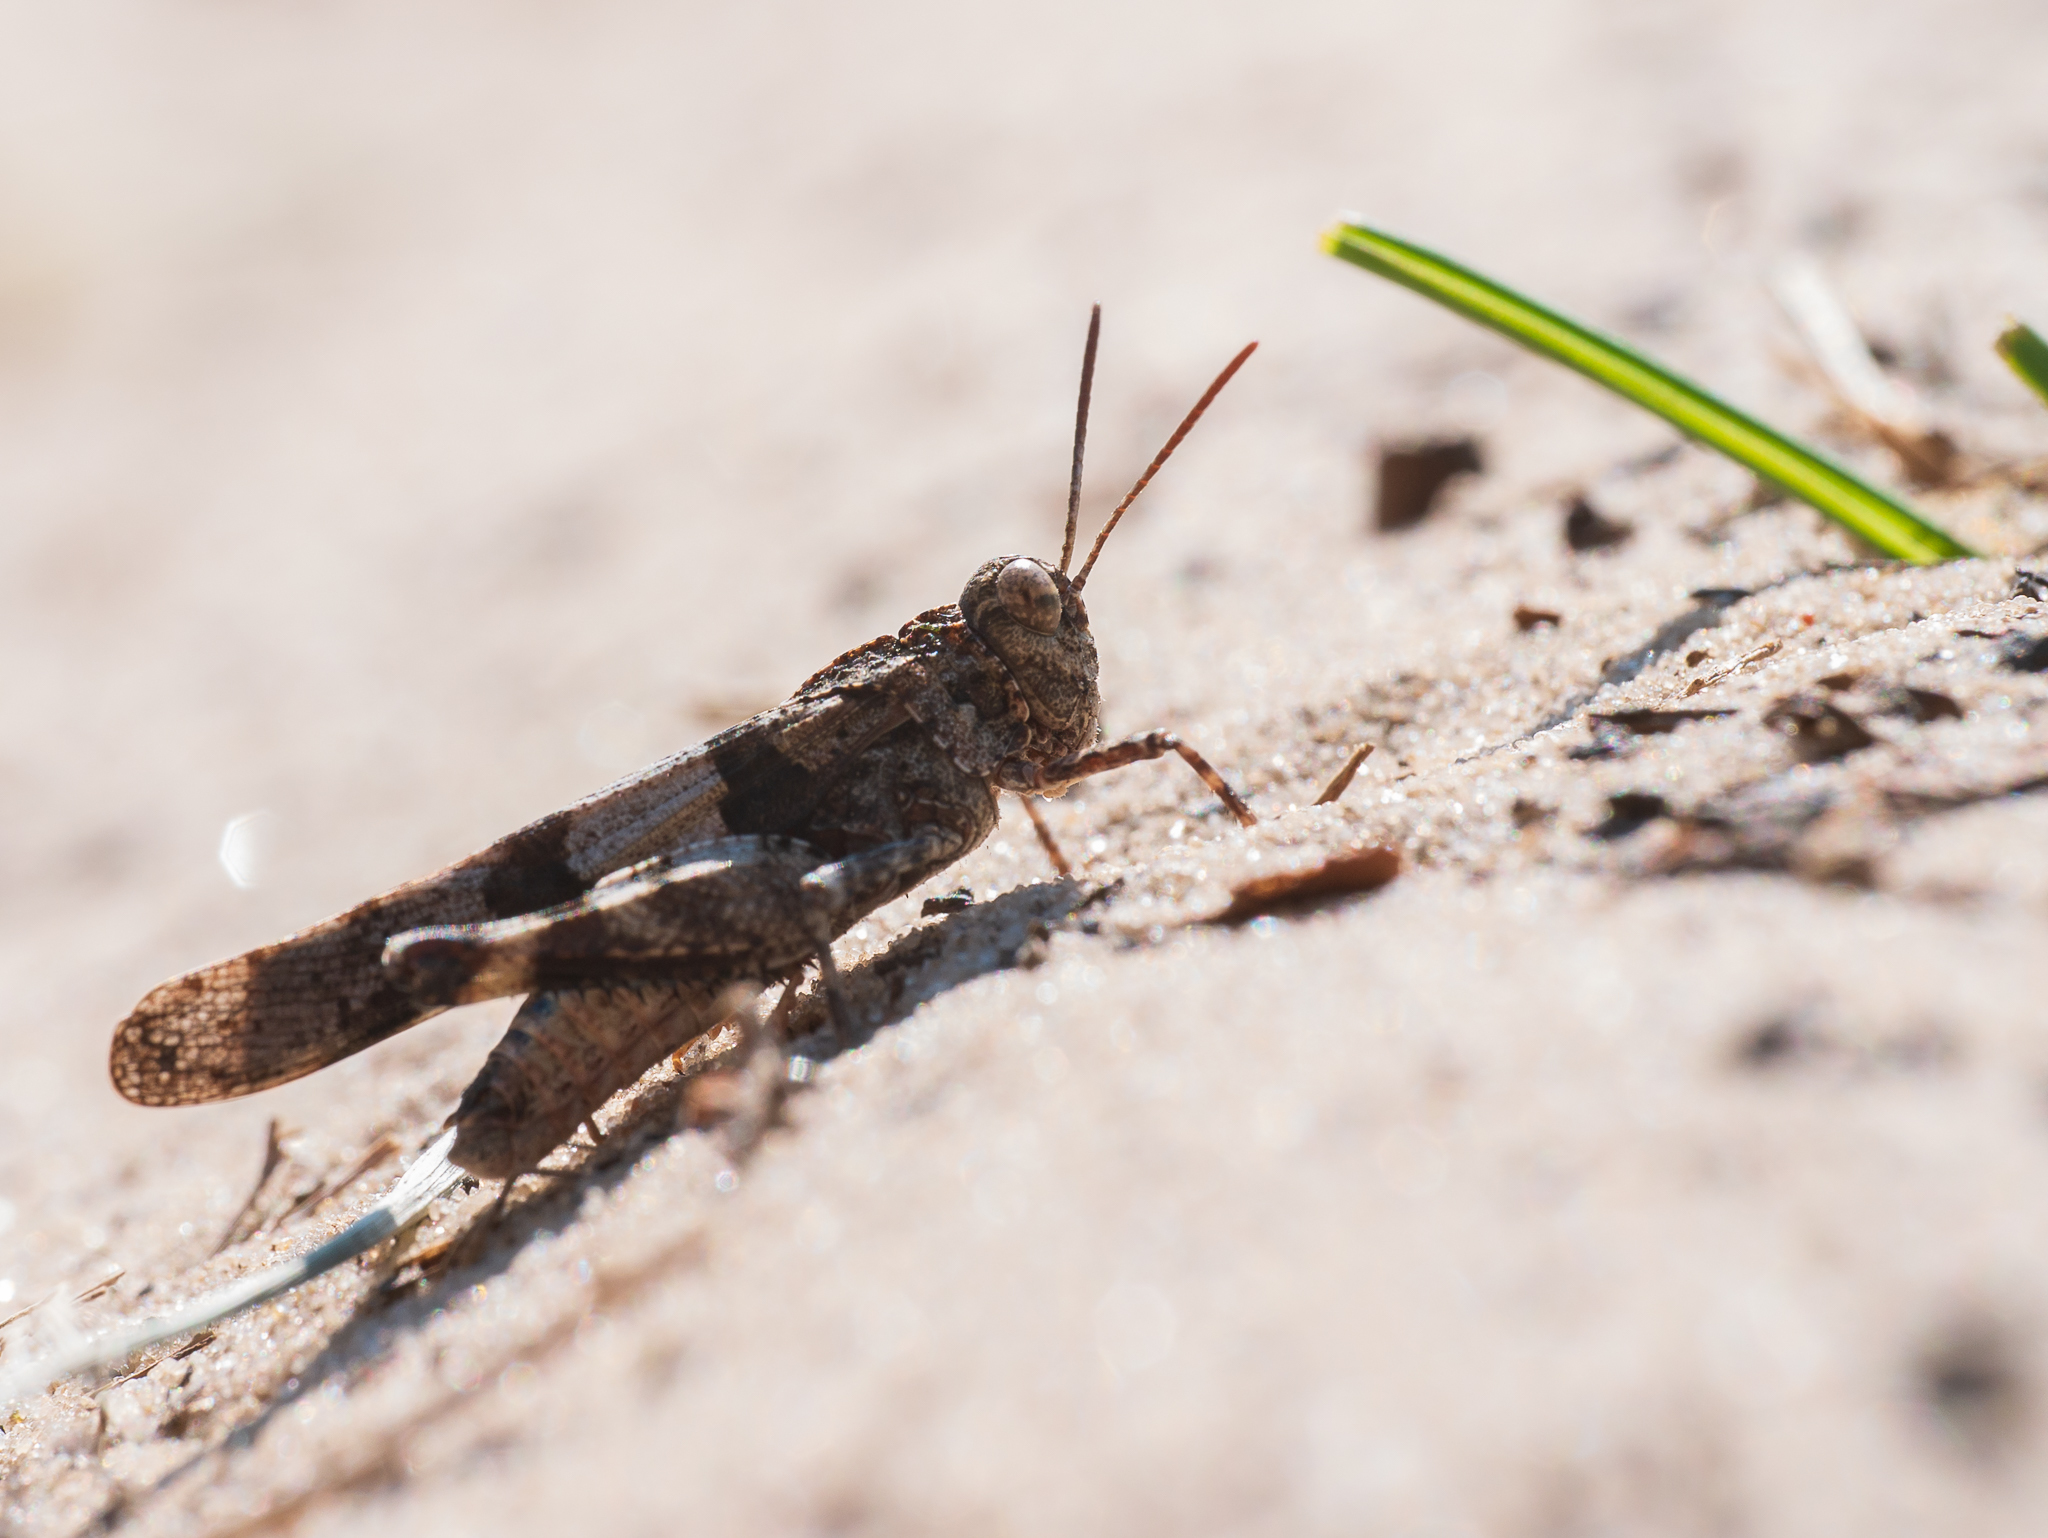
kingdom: Animalia
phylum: Arthropoda
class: Insecta
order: Orthoptera
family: Acrididae
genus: Oedipoda
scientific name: Oedipoda caerulescens
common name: Blue-winged grasshopper
